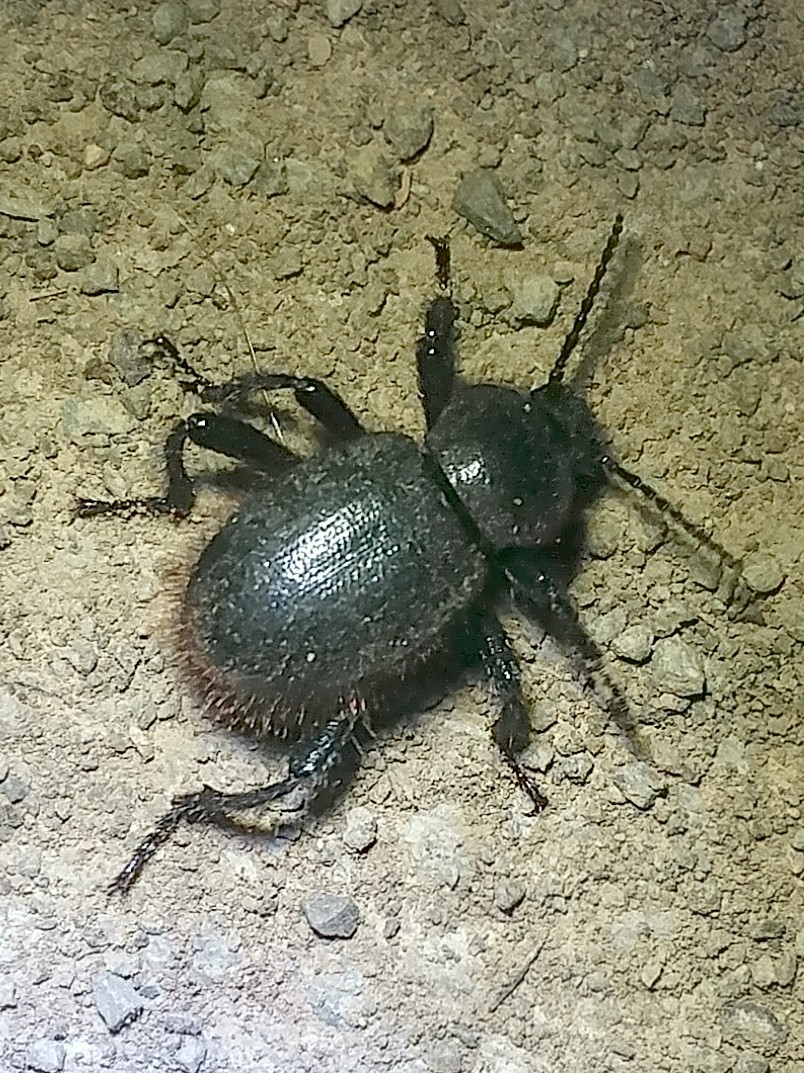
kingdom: Animalia
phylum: Arthropoda
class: Insecta
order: Coleoptera
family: Tenebrionidae
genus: Eleodes
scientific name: Eleodes osculans
